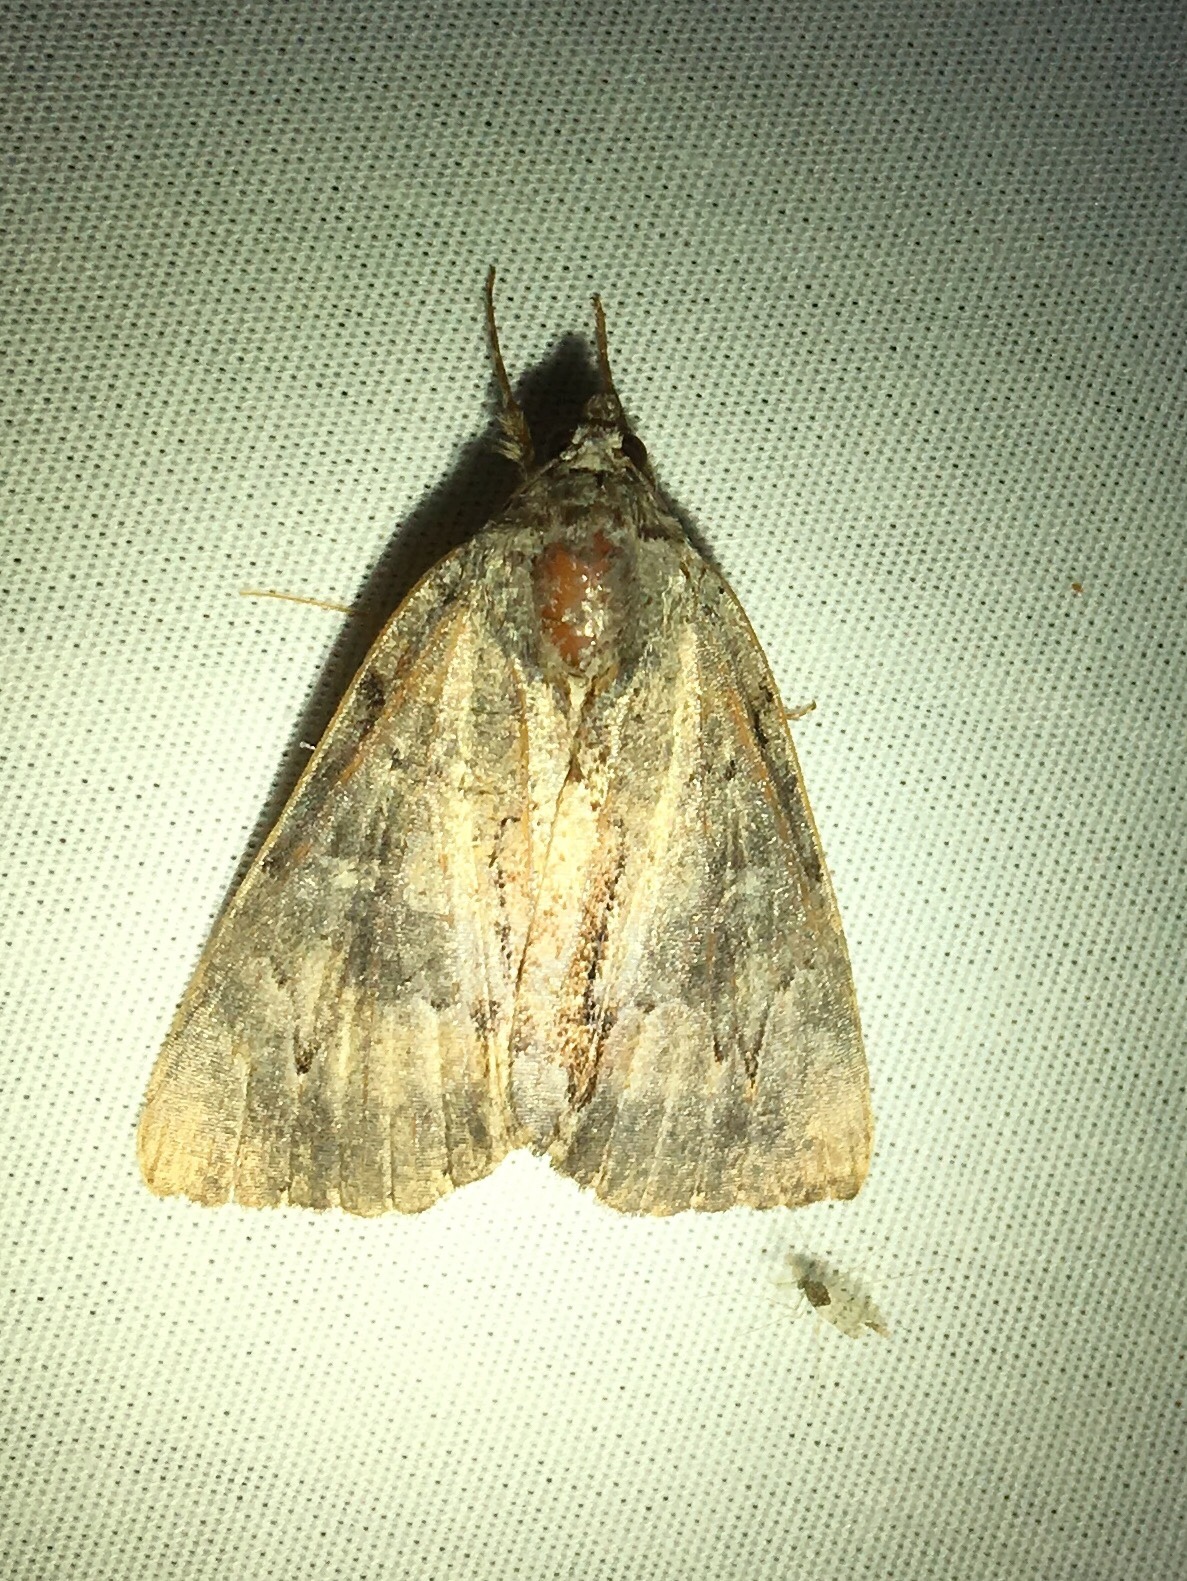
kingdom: Animalia
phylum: Arthropoda
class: Insecta
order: Lepidoptera
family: Erebidae
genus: Catocala
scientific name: Catocala grynea
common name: Woody underwing
